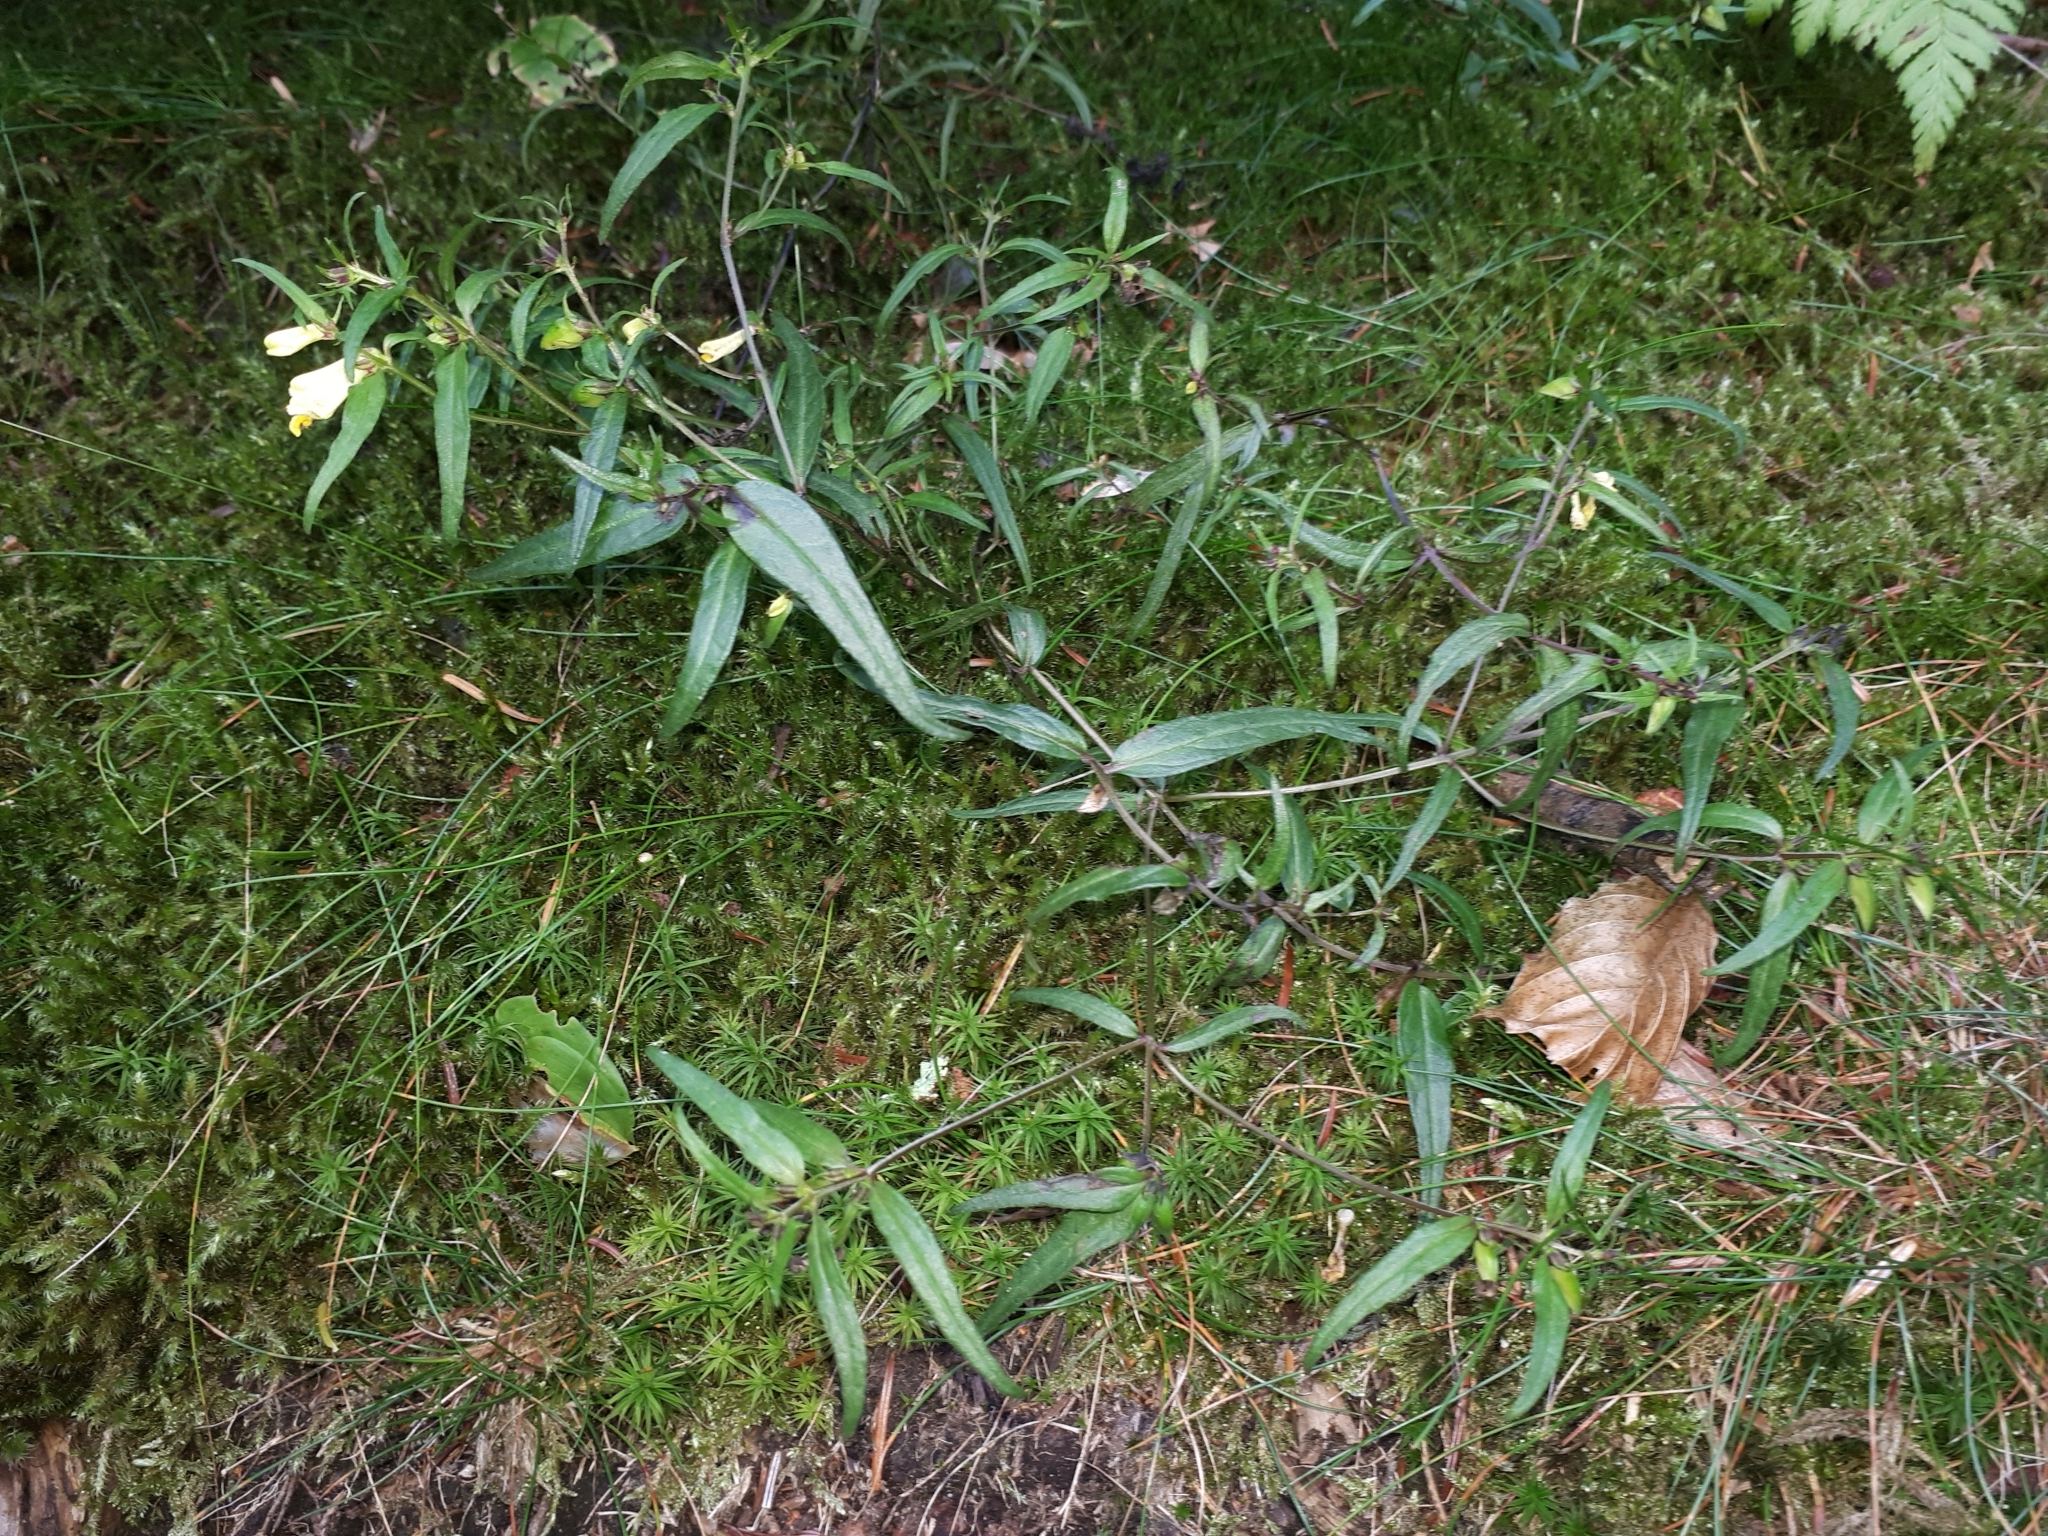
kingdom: Plantae
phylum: Tracheophyta
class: Magnoliopsida
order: Lamiales
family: Orobanchaceae
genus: Melampyrum
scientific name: Melampyrum pratense
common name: Common cow-wheat
